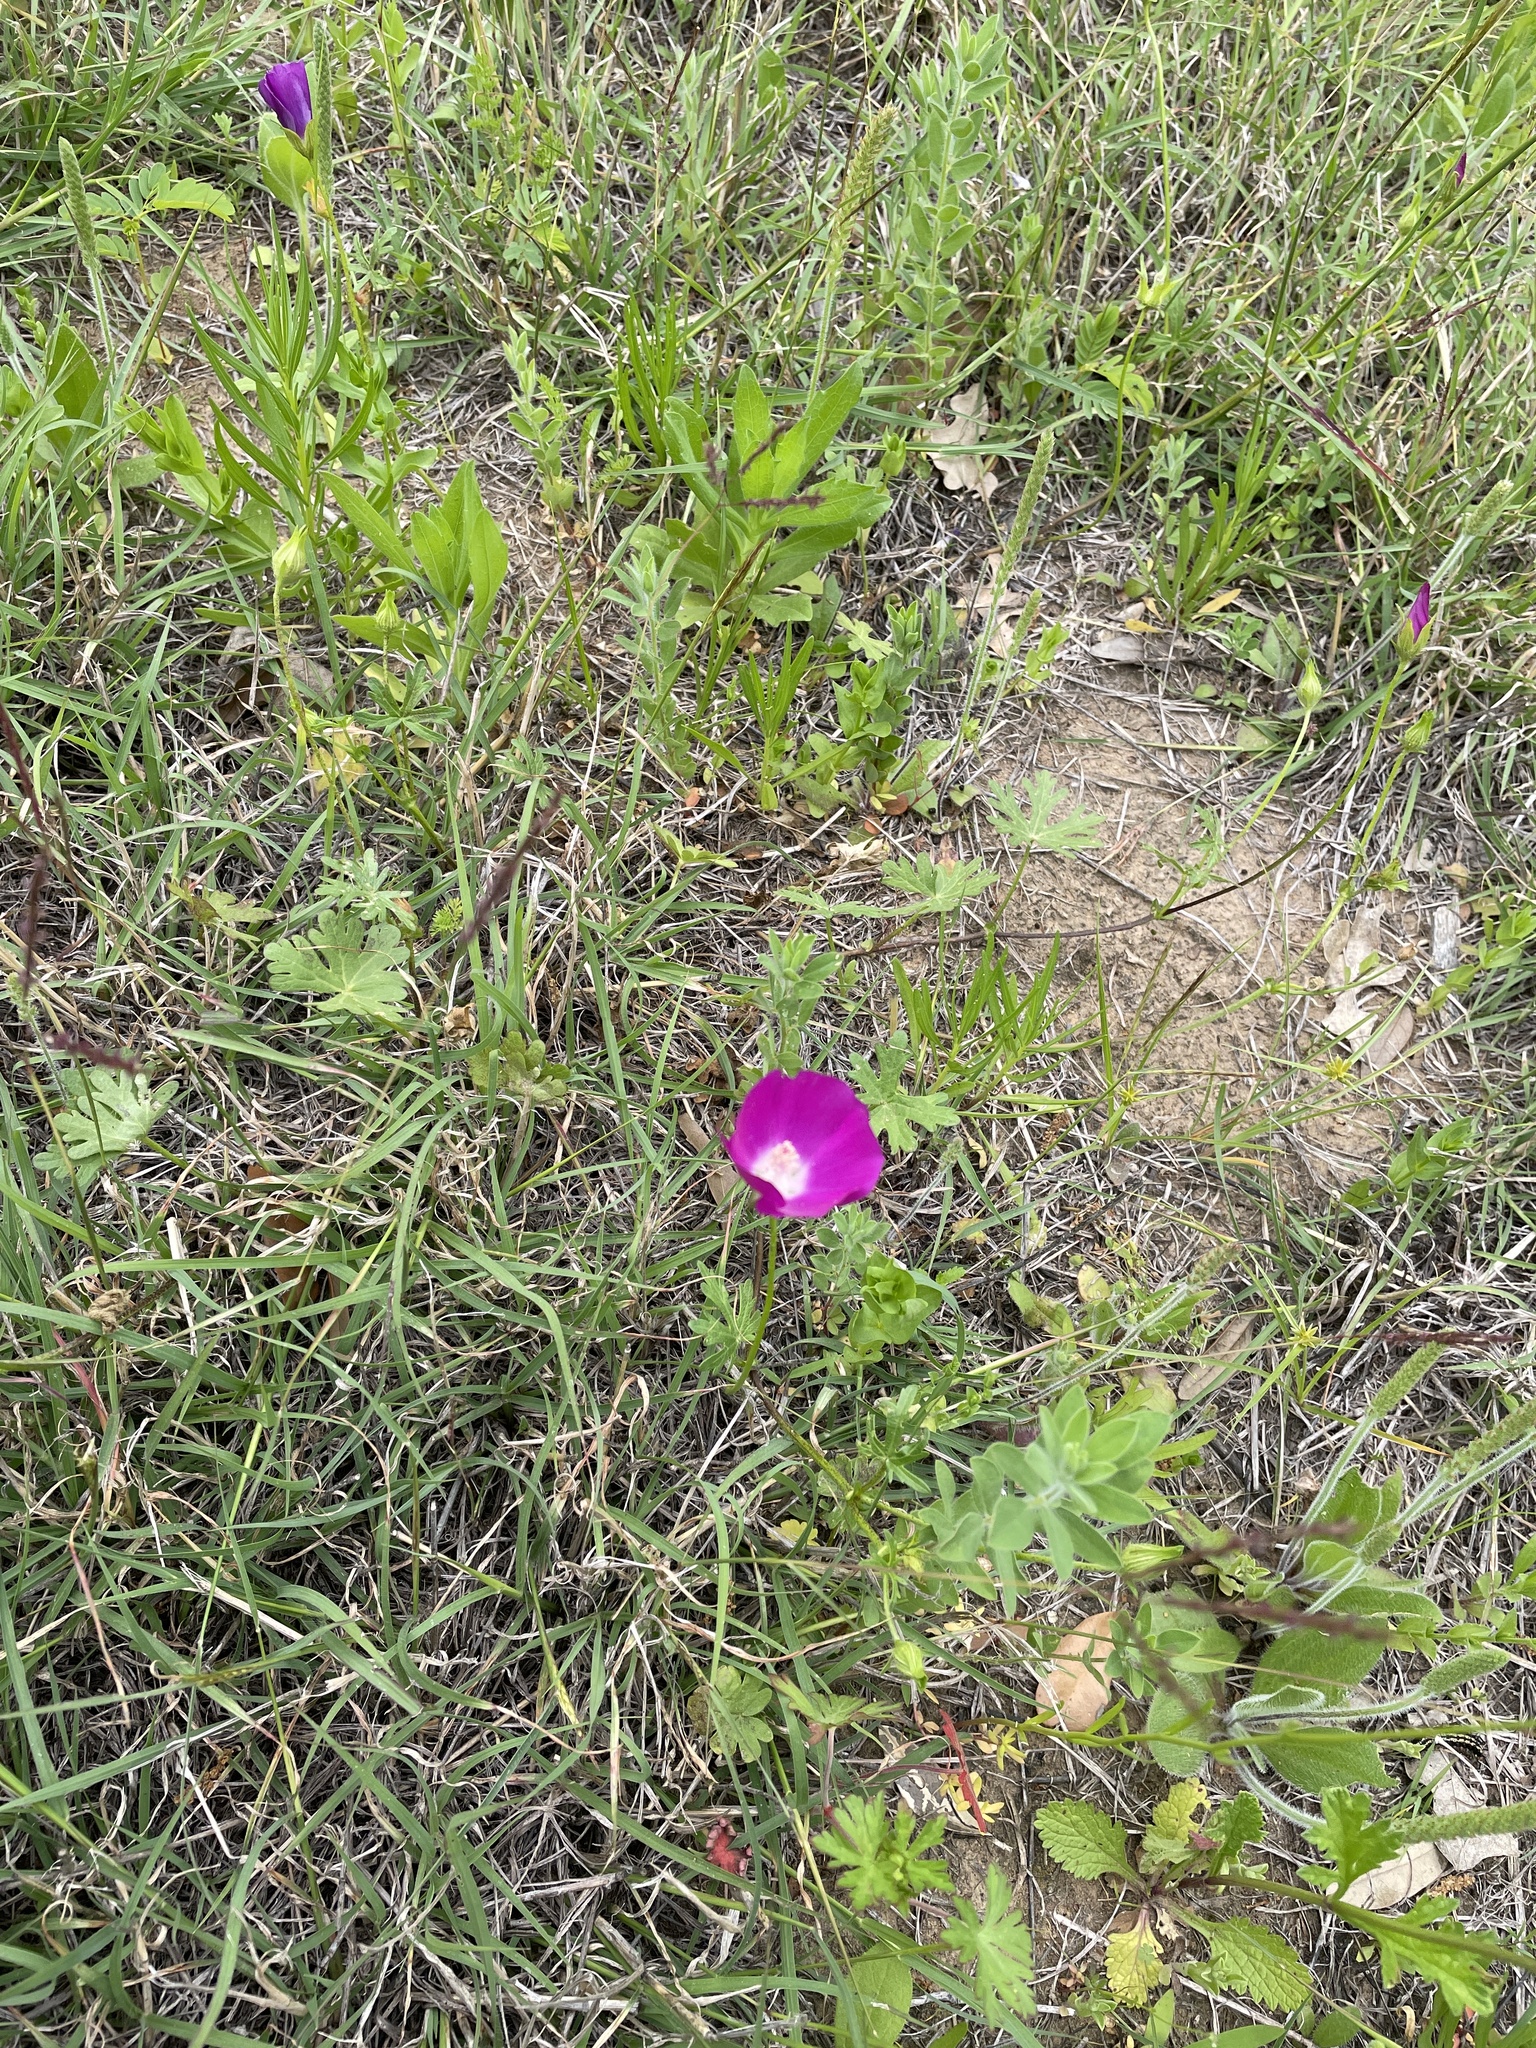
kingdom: Plantae
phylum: Tracheophyta
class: Magnoliopsida
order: Malvales
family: Malvaceae
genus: Callirhoe
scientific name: Callirhoe involucrata
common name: Purple poppy-mallow
